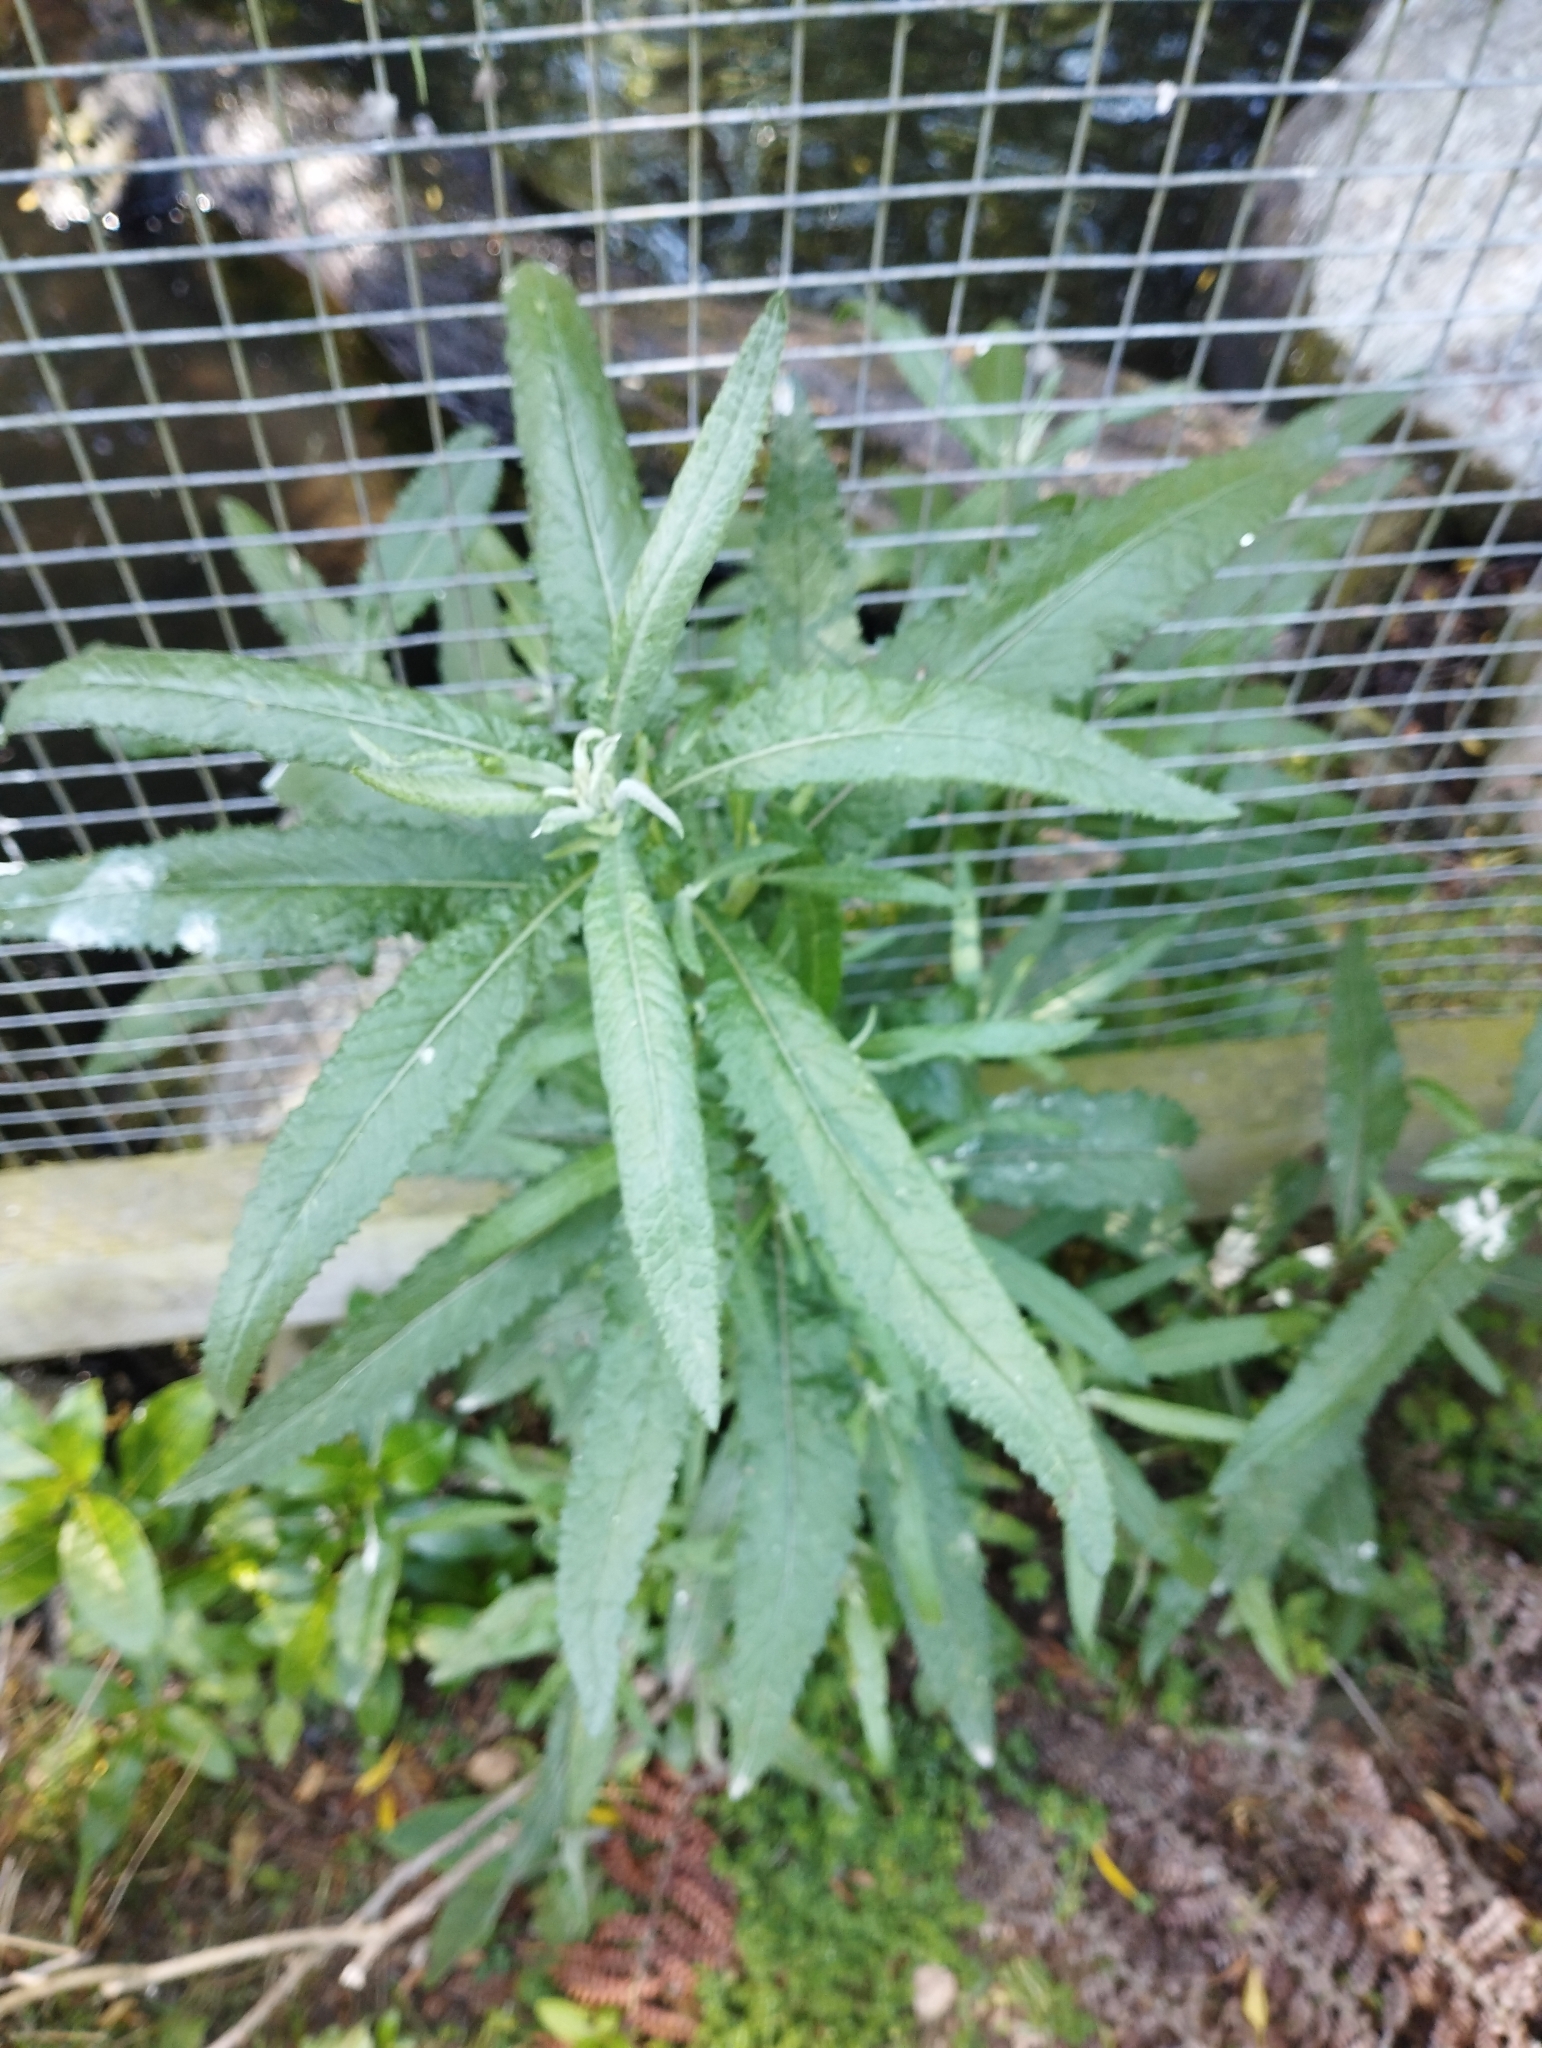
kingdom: Plantae
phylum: Tracheophyta
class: Magnoliopsida
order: Asterales
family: Asteraceae
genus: Senecio
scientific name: Senecio minimus
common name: Toothed fireweed
